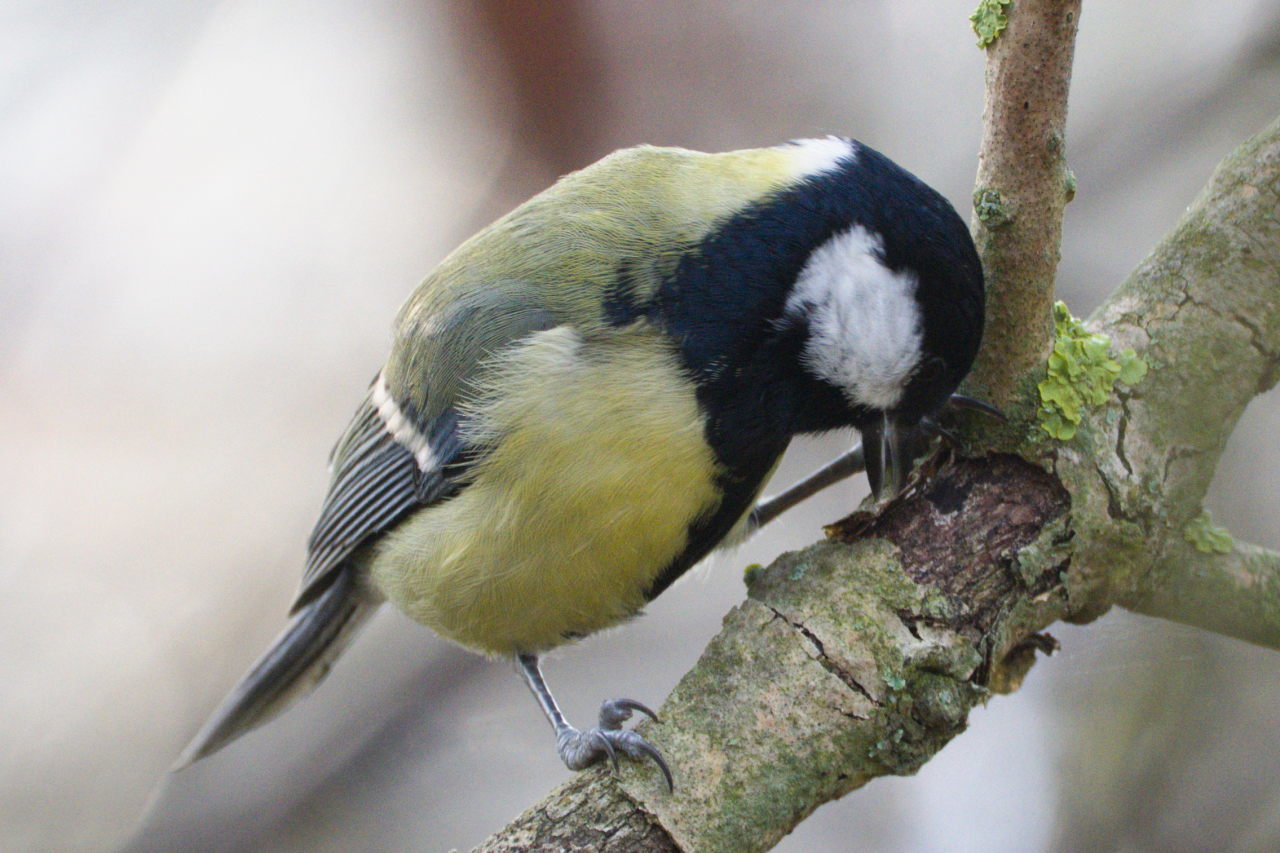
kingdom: Animalia
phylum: Chordata
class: Aves
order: Passeriformes
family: Paridae
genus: Parus
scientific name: Parus major
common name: Great tit
